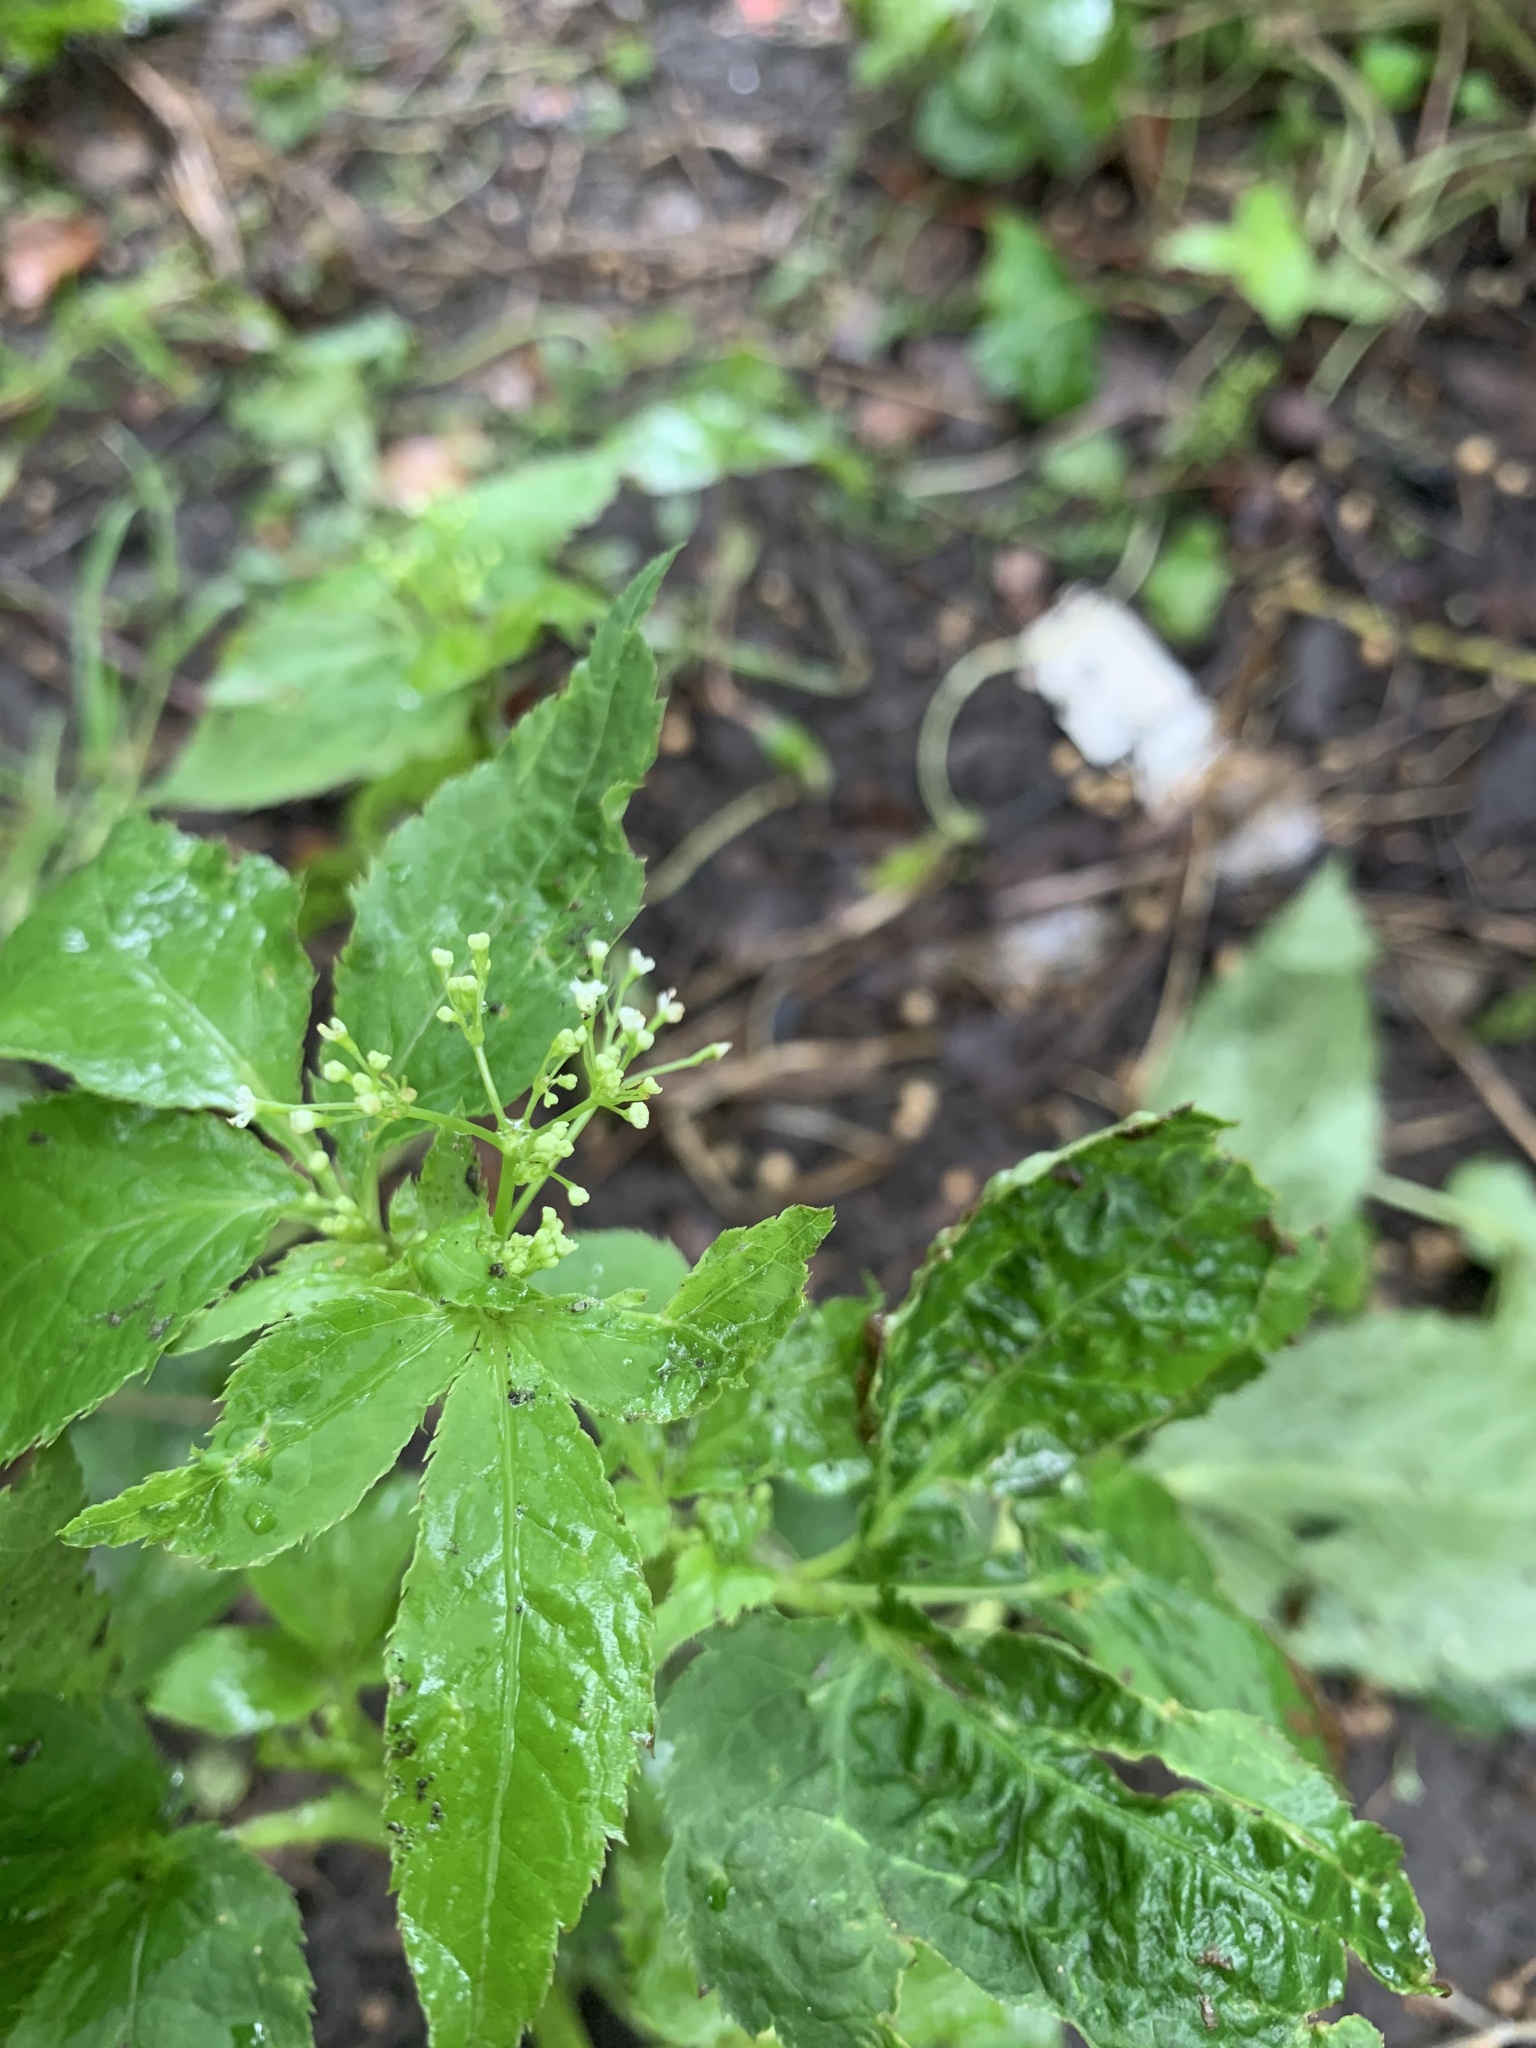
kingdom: Plantae
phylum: Tracheophyta
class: Magnoliopsida
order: Apiales
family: Apiaceae
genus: Cryptotaenia
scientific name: Cryptotaenia canadensis
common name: Honewort
